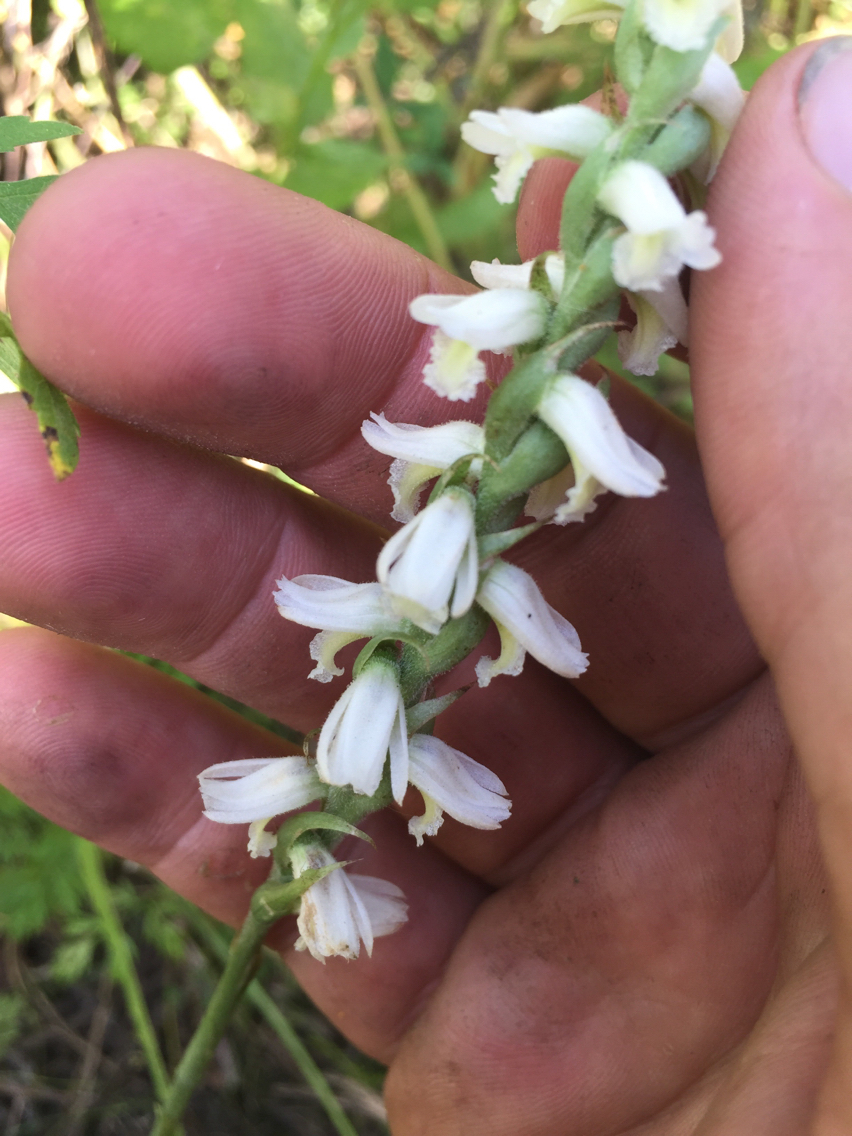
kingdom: Plantae
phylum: Tracheophyta
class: Liliopsida
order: Asparagales
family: Orchidaceae
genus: Spiranthes
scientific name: Spiranthes magnicamporum
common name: Great plains ladies'-tresses
